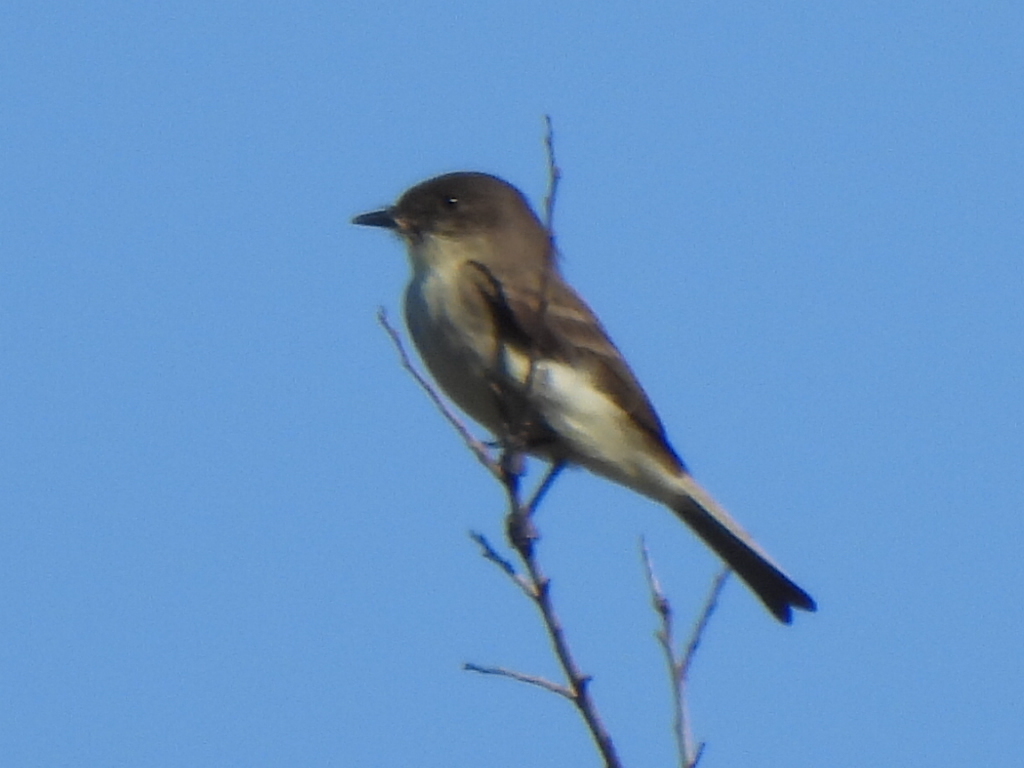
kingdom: Animalia
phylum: Chordata
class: Aves
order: Passeriformes
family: Tyrannidae
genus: Sayornis
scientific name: Sayornis phoebe
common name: Eastern phoebe
